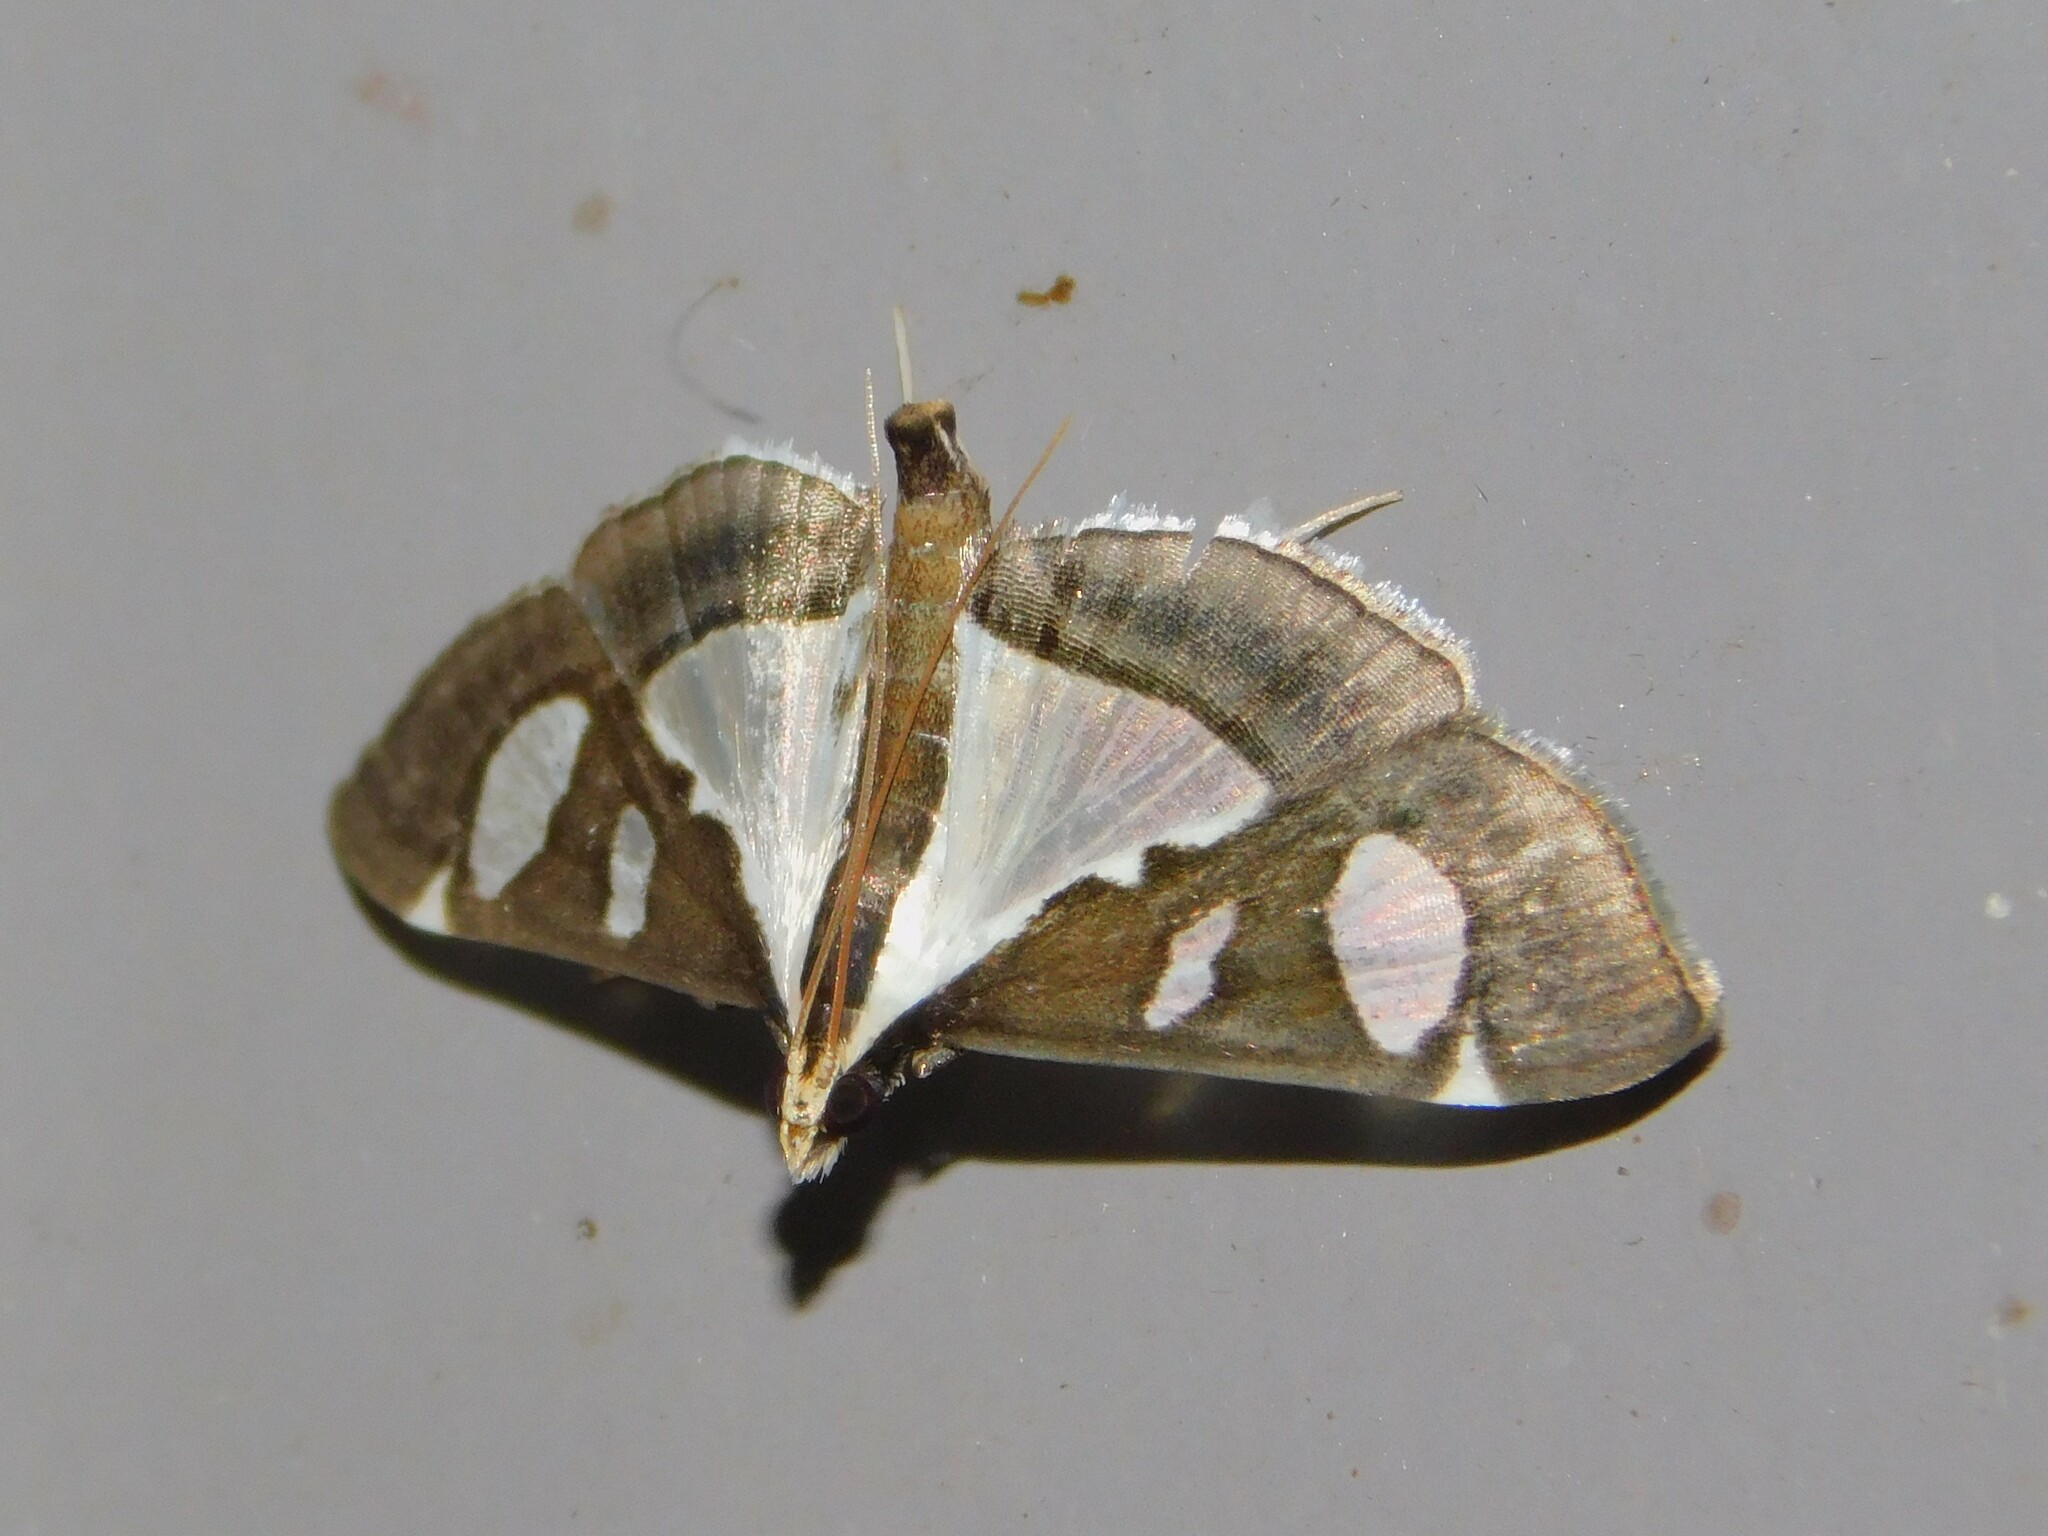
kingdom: Animalia
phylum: Arthropoda
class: Insecta
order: Lepidoptera
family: Crambidae
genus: Glyphodes
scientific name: Glyphodes bicolor
